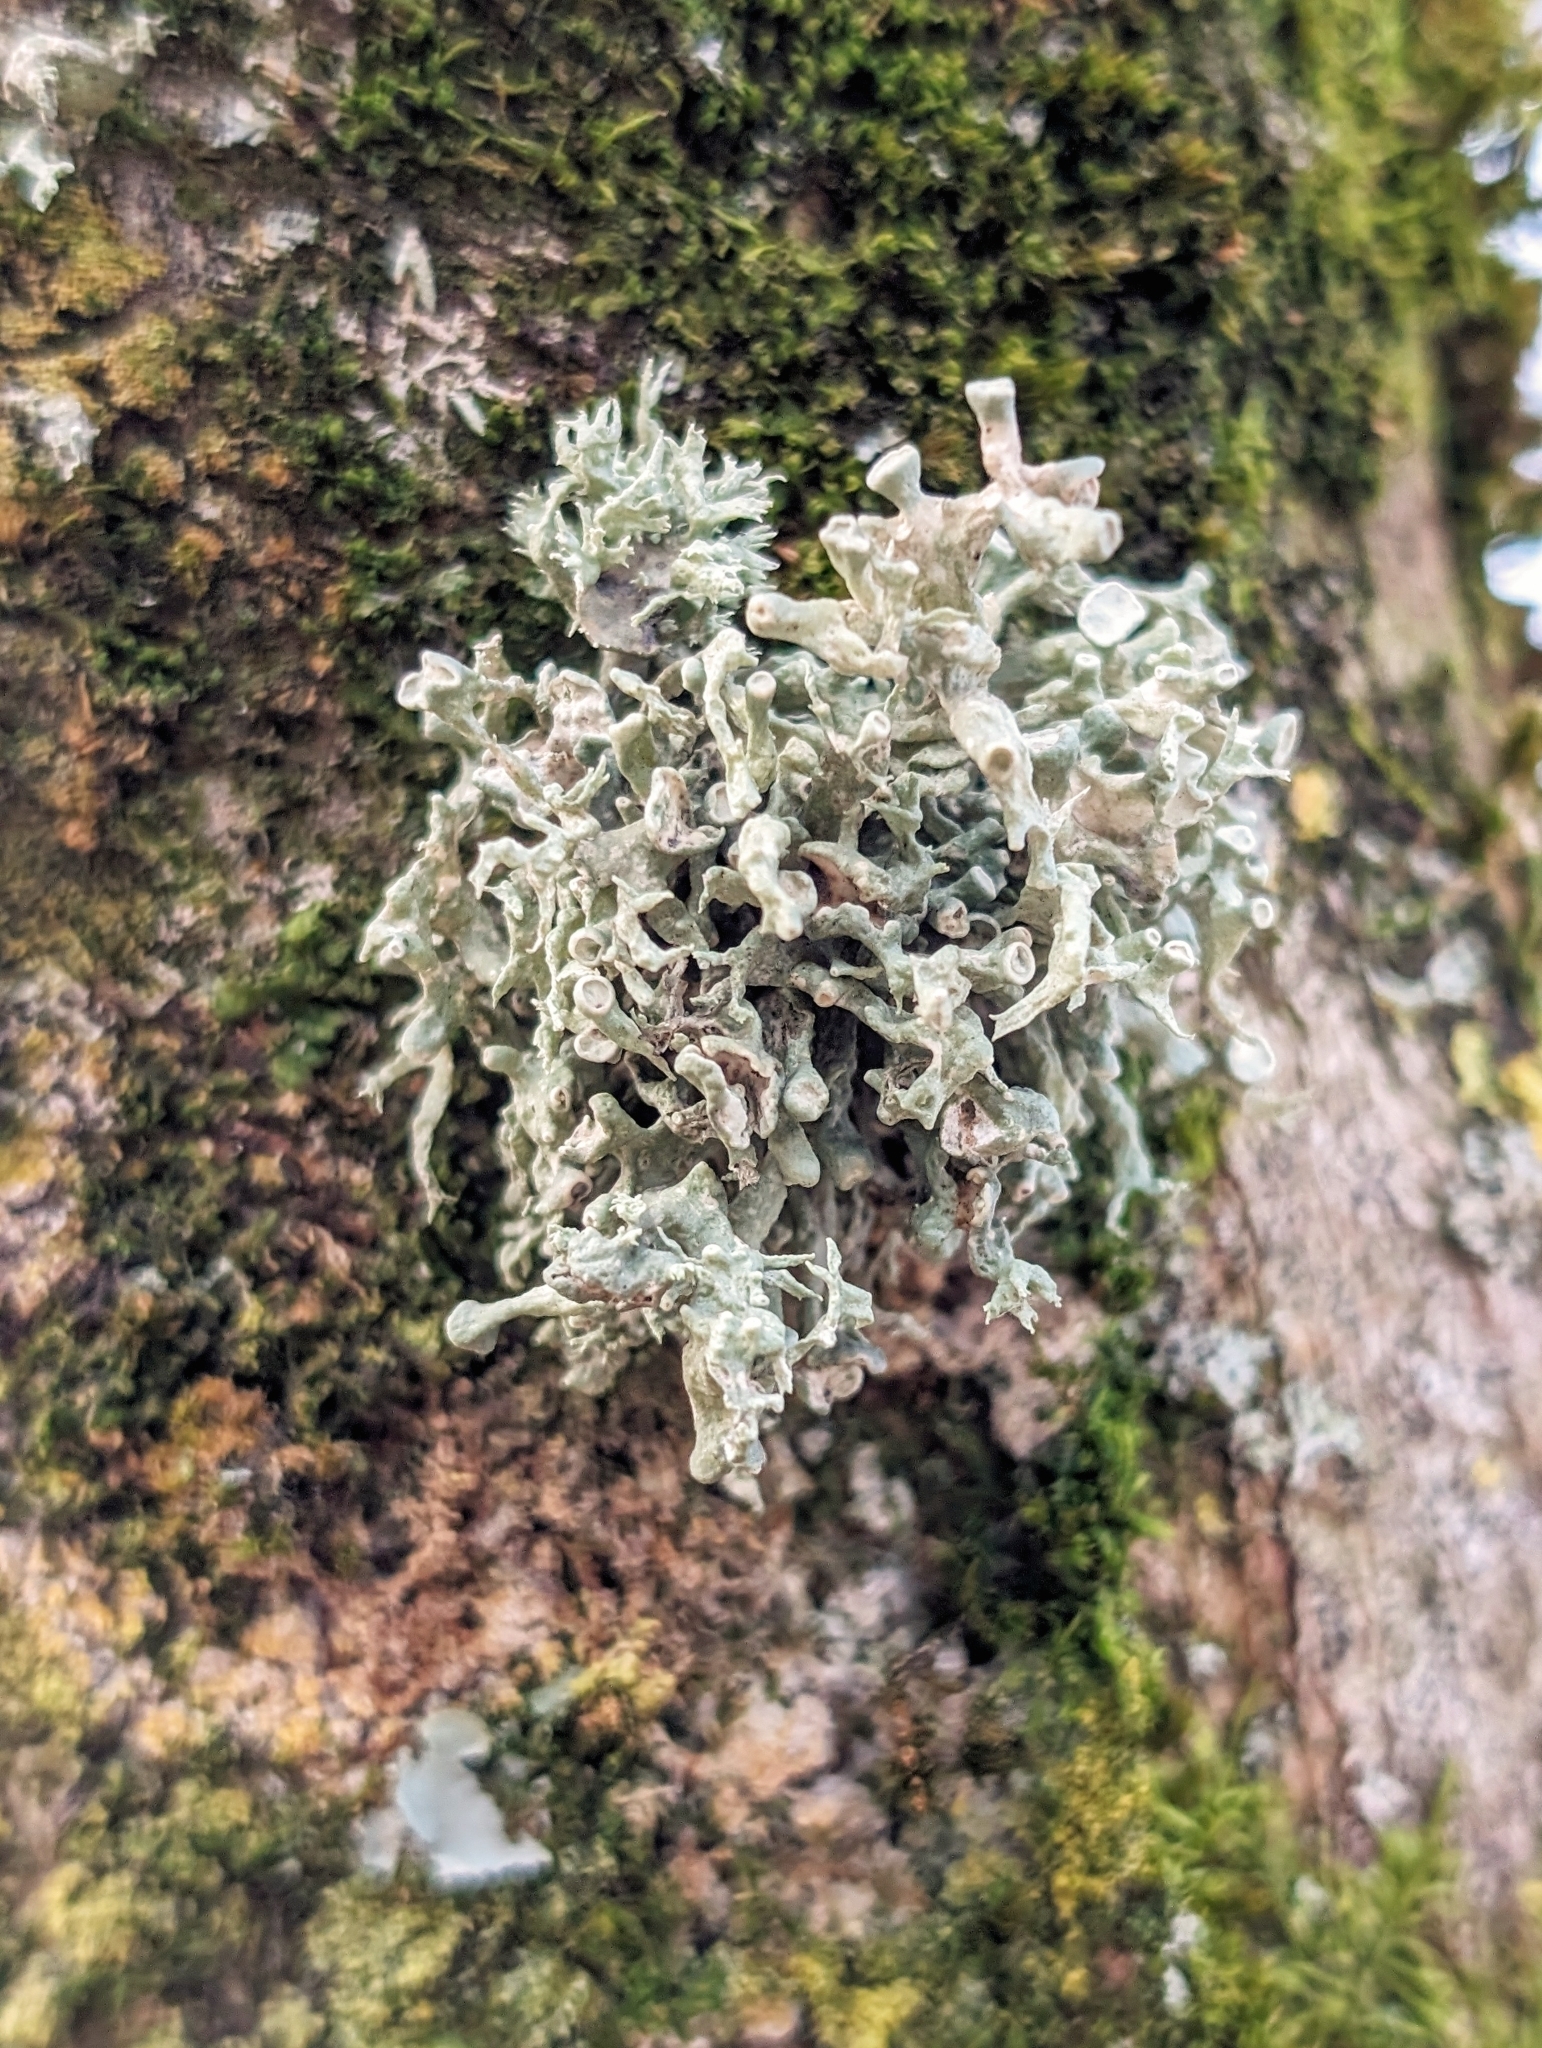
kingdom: Fungi
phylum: Ascomycota
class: Lecanoromycetes
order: Lecanorales
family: Ramalinaceae
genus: Ramalina
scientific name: Ramalina fastigiata
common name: Dotted ribbon lichen
